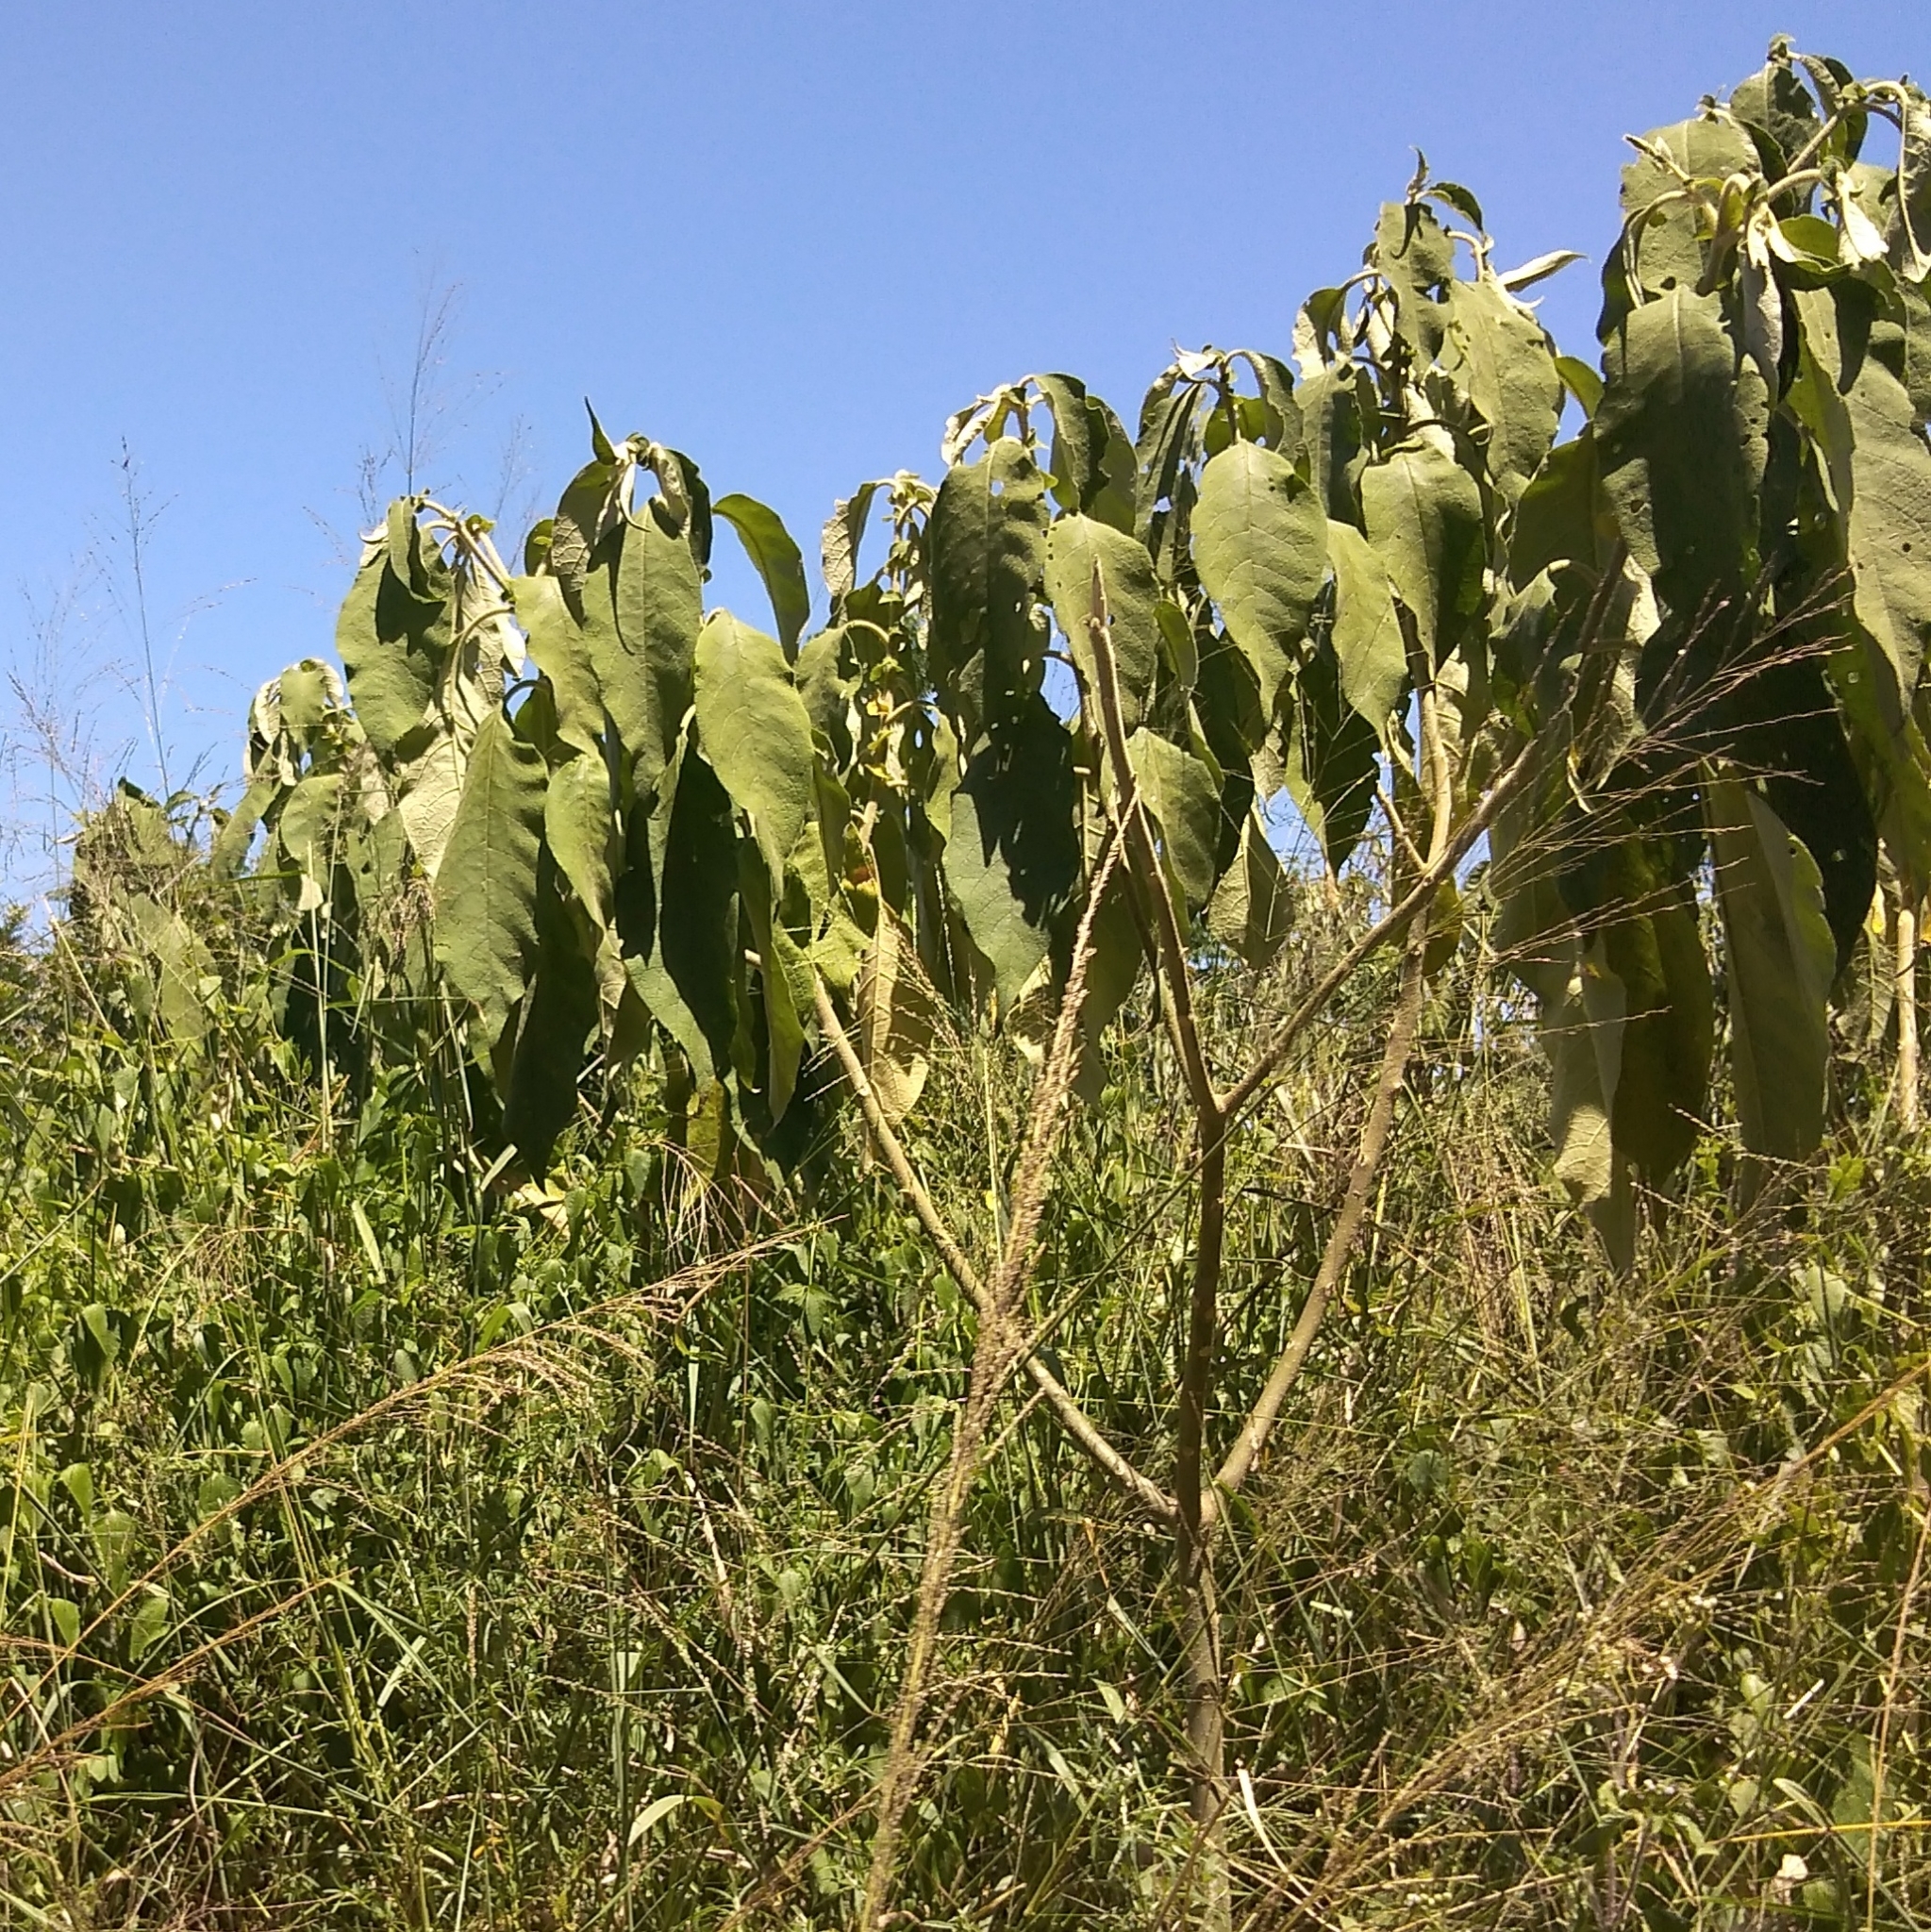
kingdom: Plantae
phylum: Tracheophyta
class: Magnoliopsida
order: Solanales
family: Solanaceae
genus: Solanum
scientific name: Solanum mauritianum
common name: Earleaf nightshade
